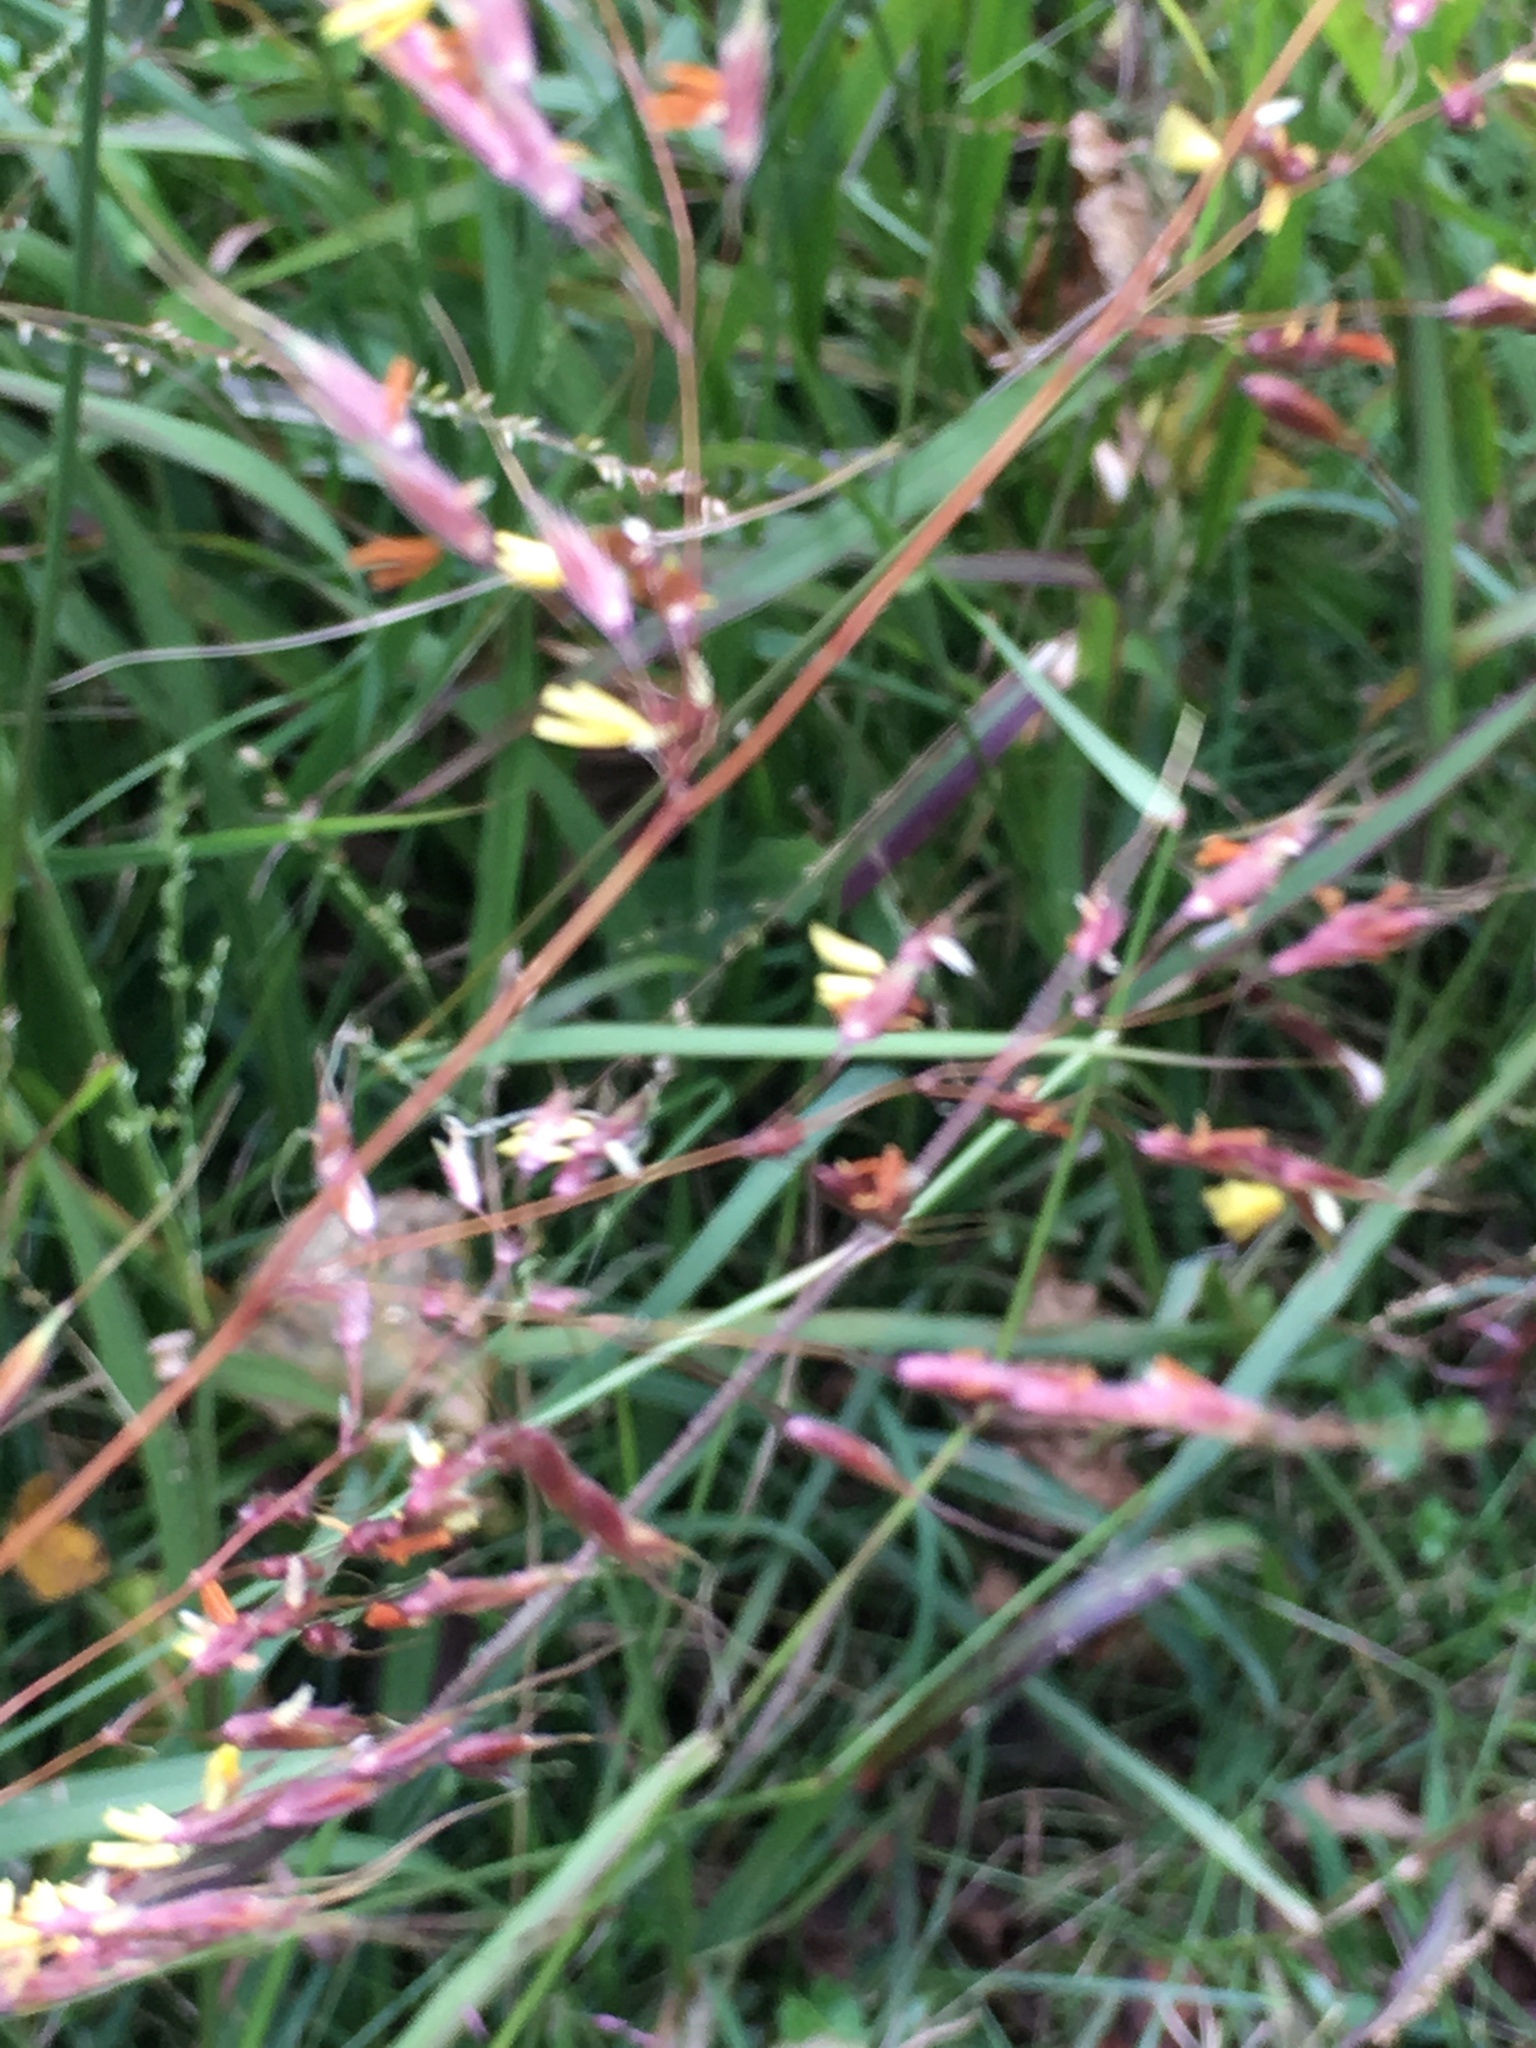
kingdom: Plantae
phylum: Tracheophyta
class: Liliopsida
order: Poales
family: Poaceae
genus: Sorghastrum
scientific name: Sorghastrum nutans
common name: Indian grass
